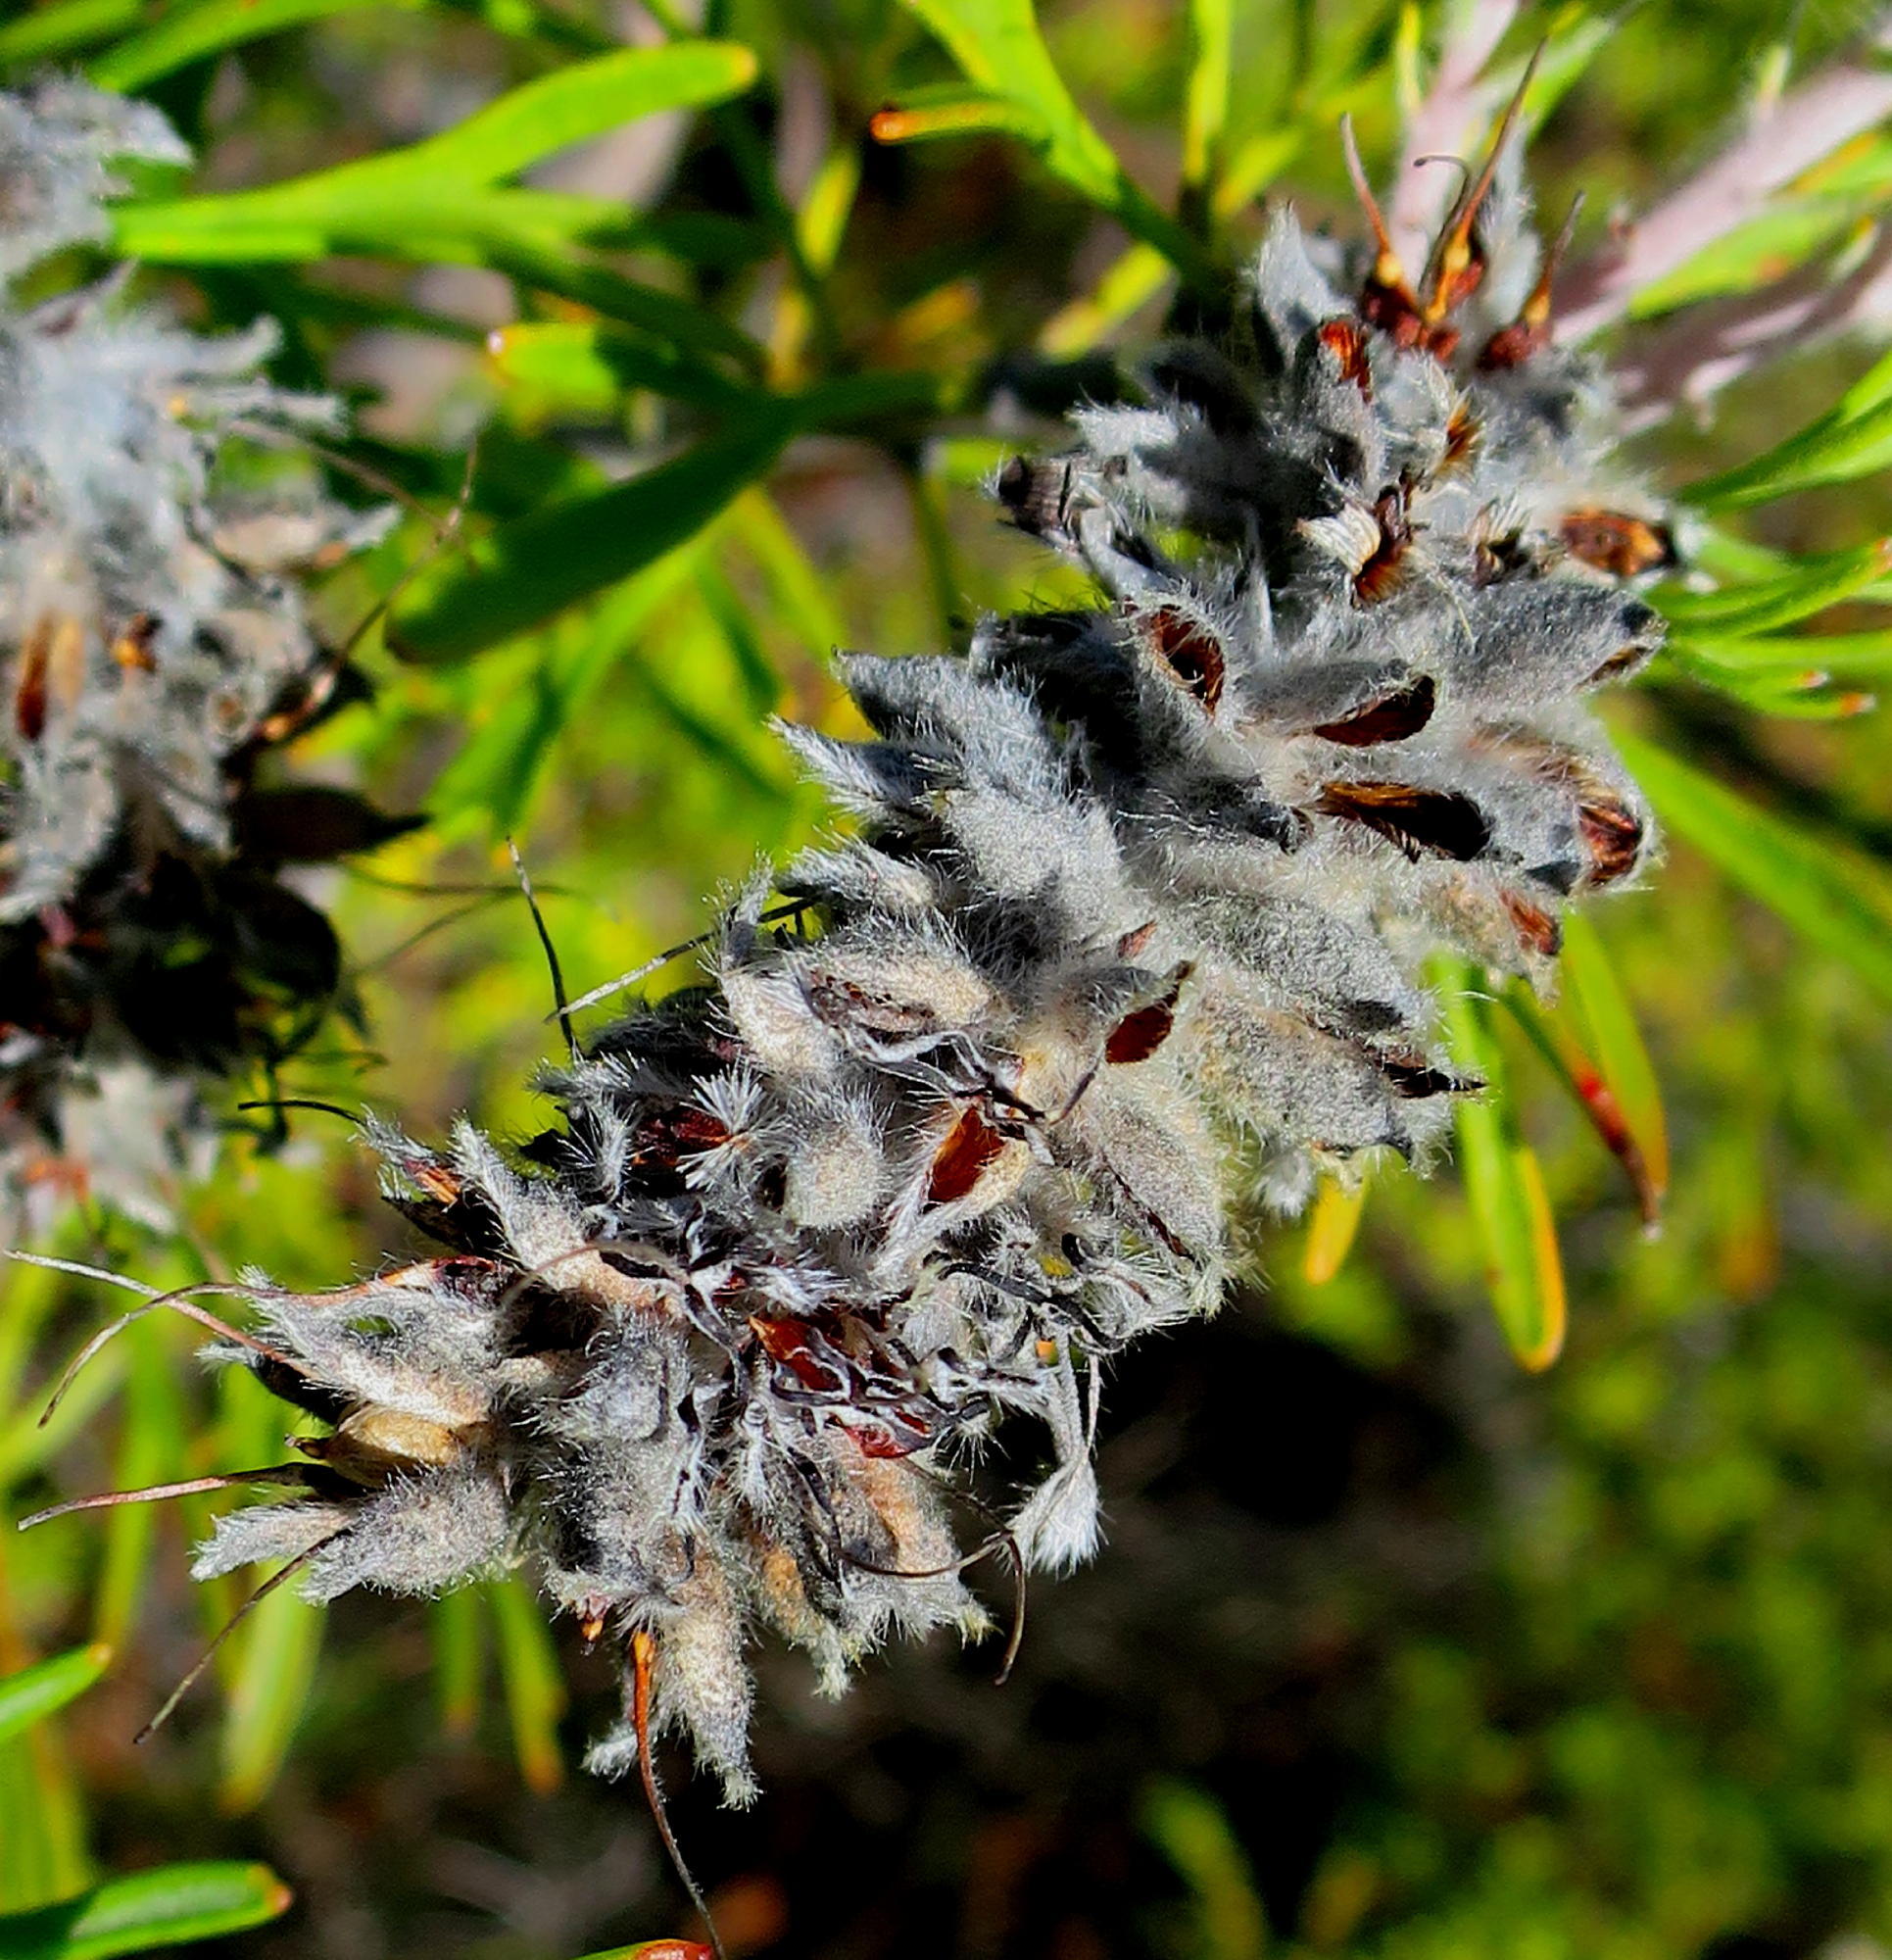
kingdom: Plantae
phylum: Tracheophyta
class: Magnoliopsida
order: Proteales
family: Proteaceae
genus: Paranomus
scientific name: Paranomus dispersus
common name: Long-head sceptre
